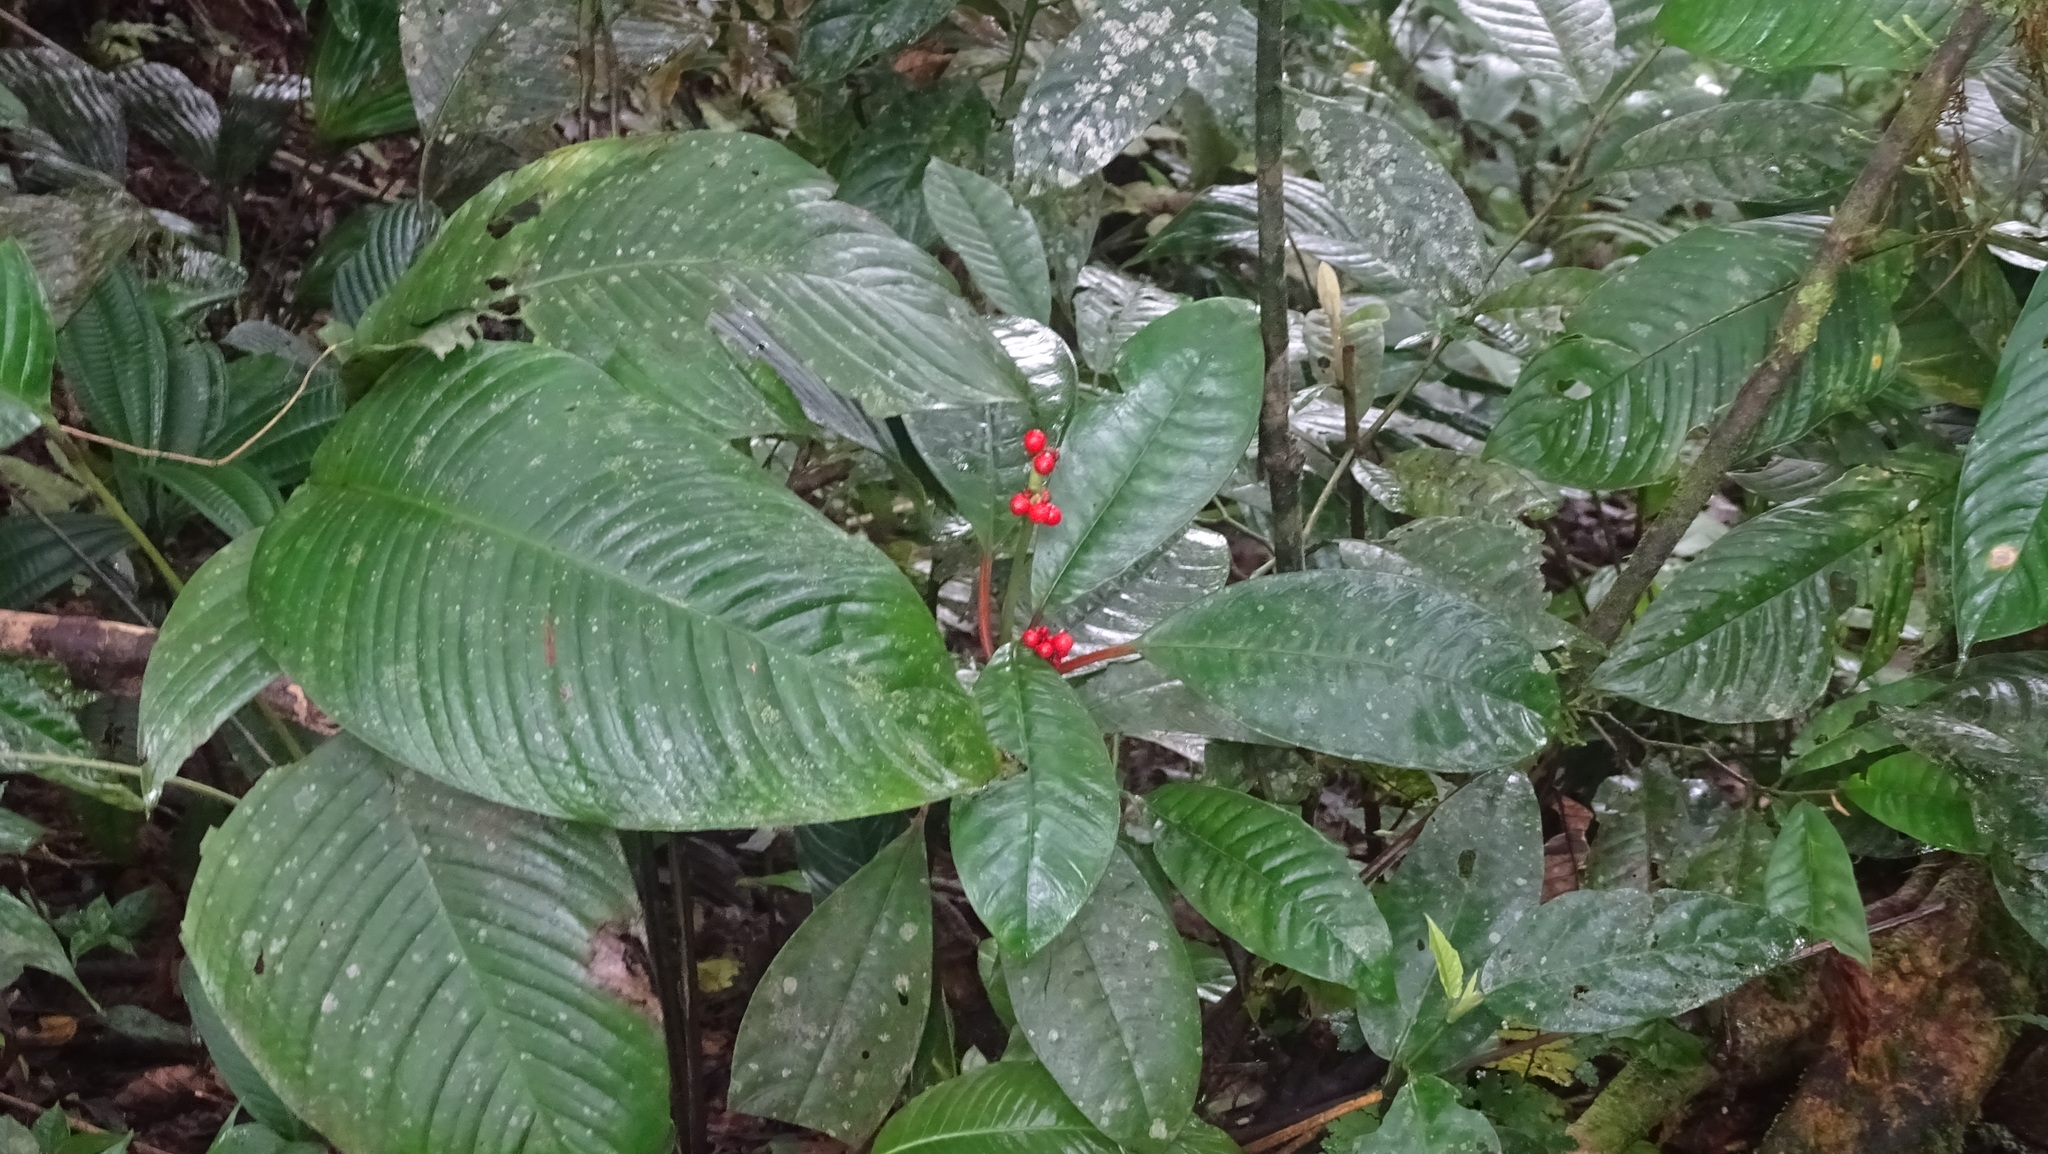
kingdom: Plantae
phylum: Tracheophyta
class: Magnoliopsida
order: Gentianales
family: Rubiaceae
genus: Notopleura
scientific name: Notopleura uliginosa
